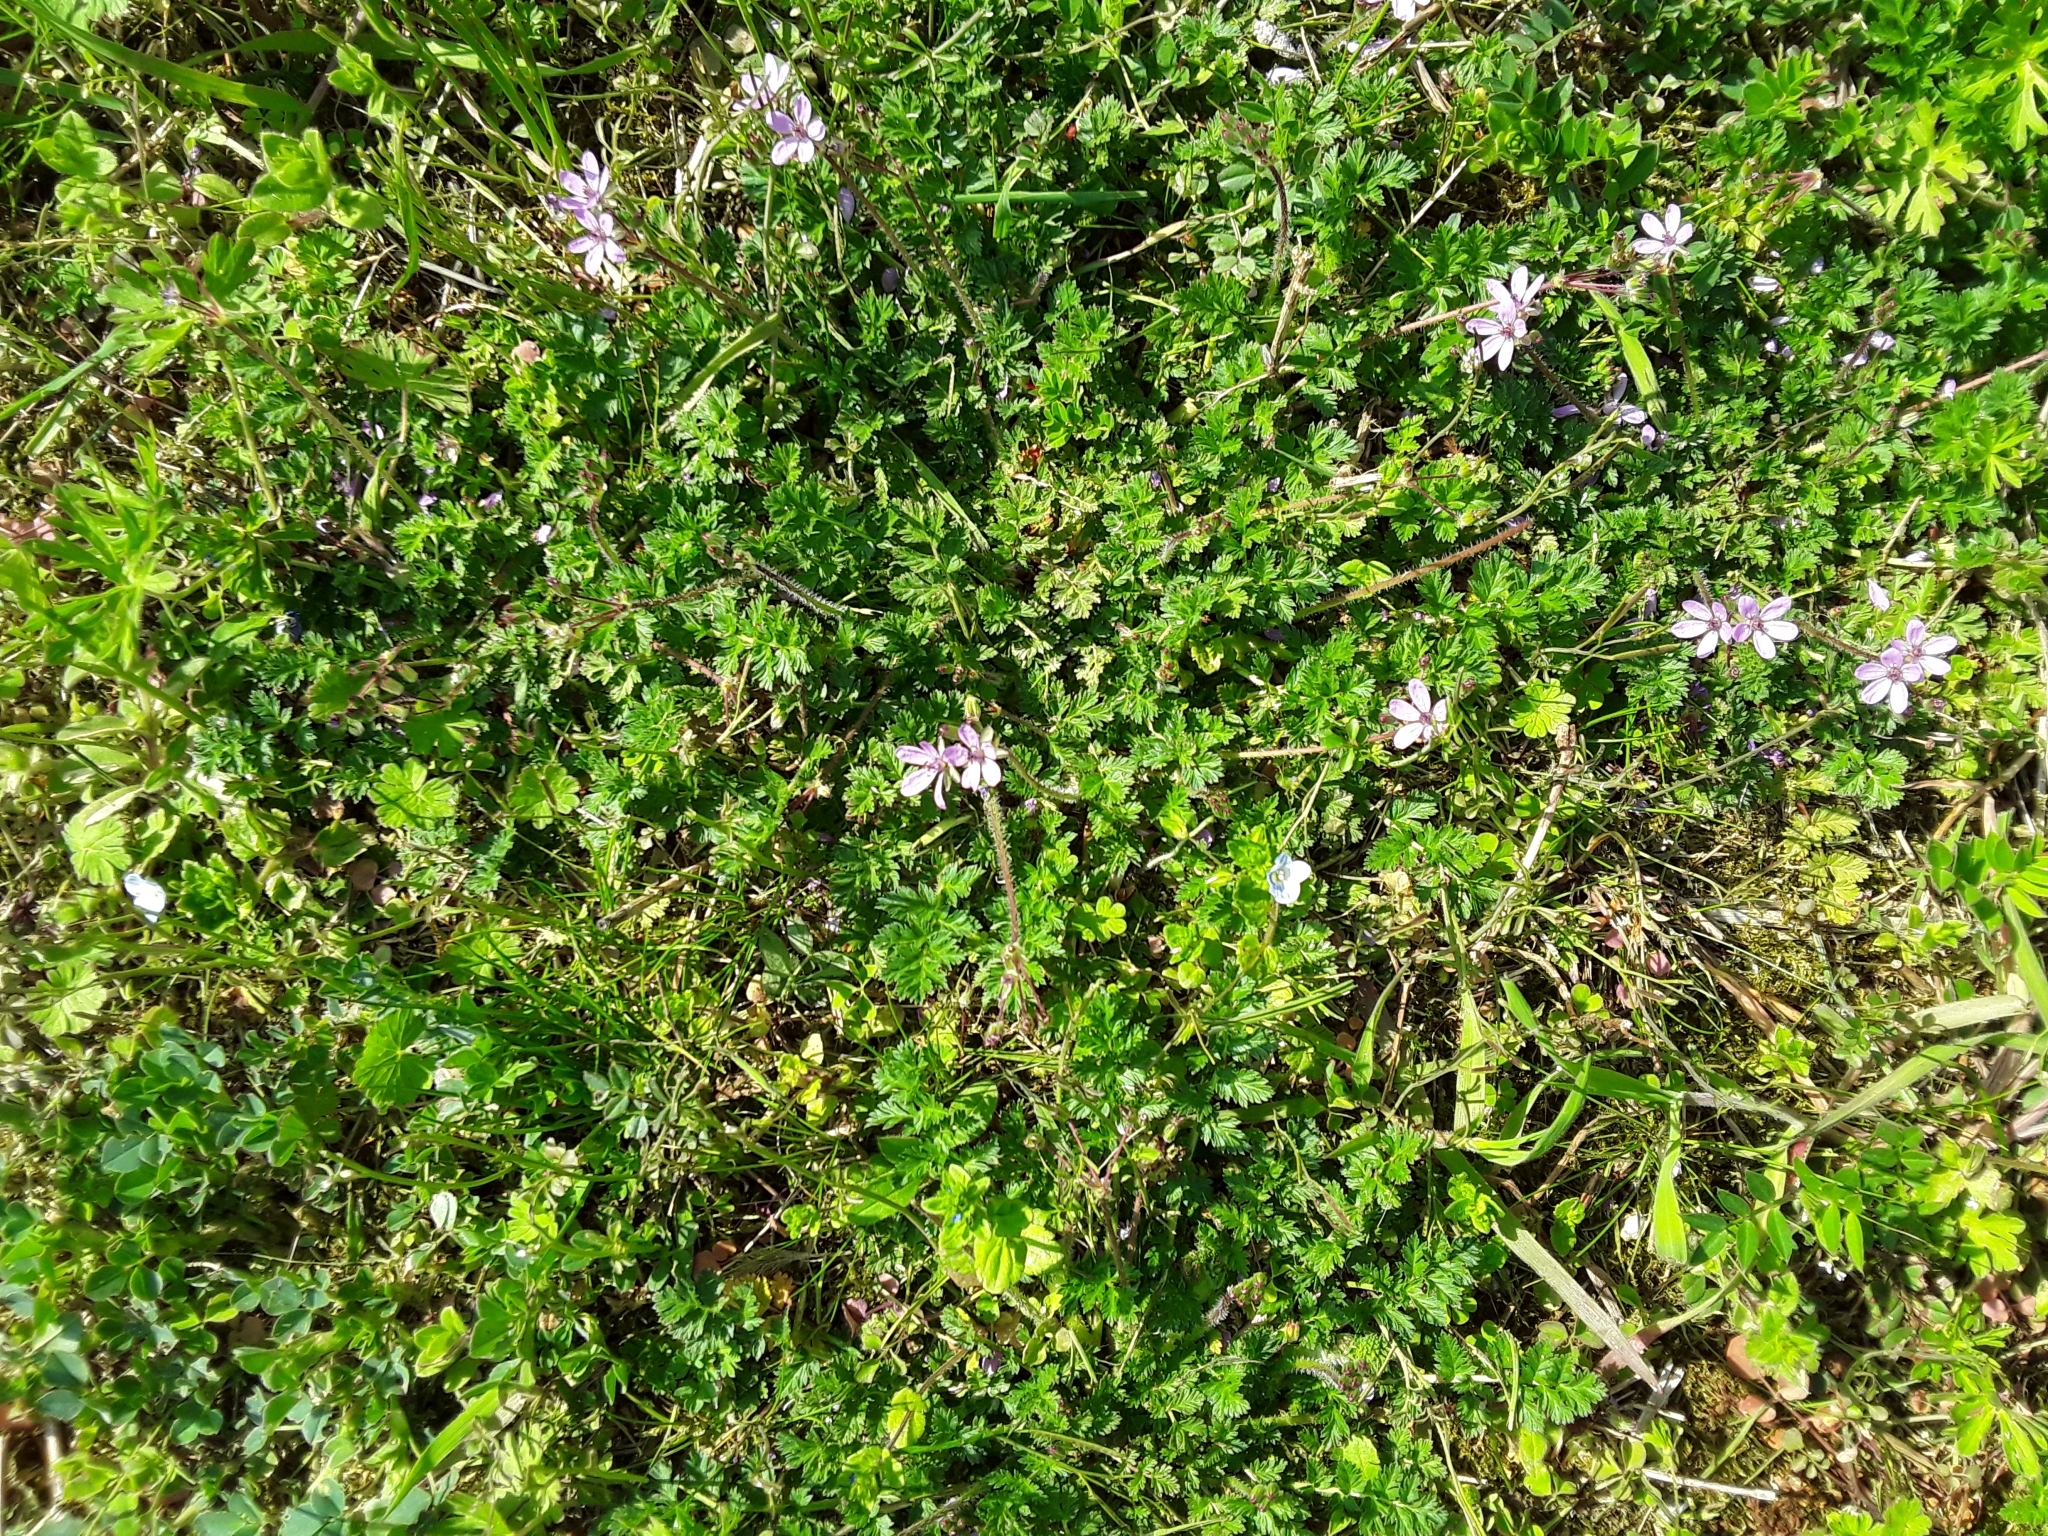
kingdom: Plantae
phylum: Tracheophyta
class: Magnoliopsida
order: Geraniales
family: Geraniaceae
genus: Erodium
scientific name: Erodium cicutarium
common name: Common stork's-bill
